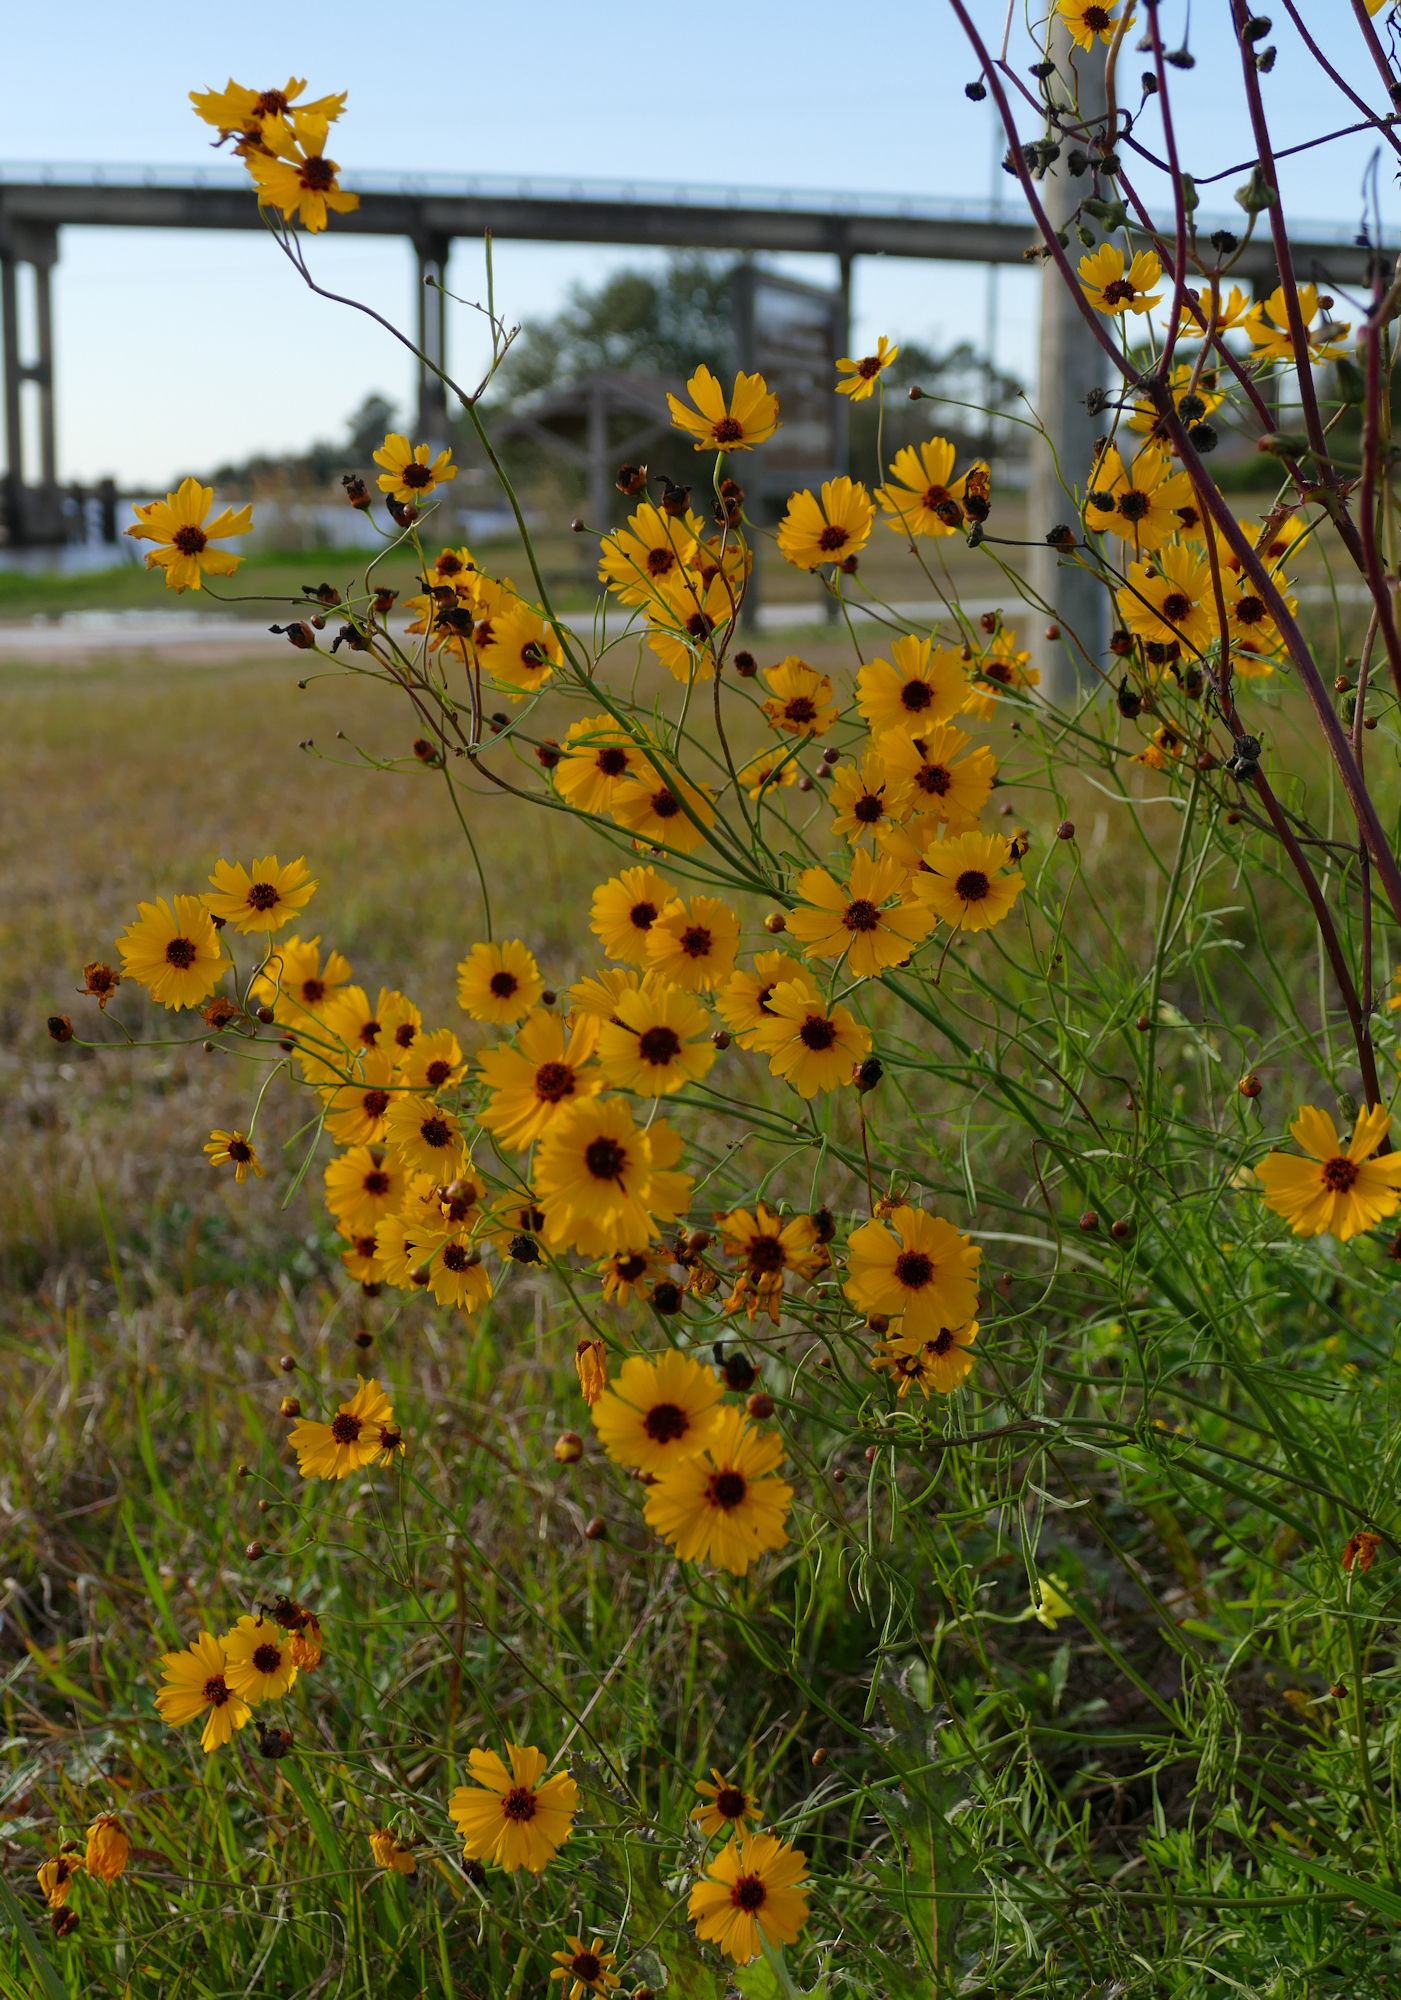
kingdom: Plantae
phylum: Tracheophyta
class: Magnoliopsida
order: Asterales
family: Asteraceae
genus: Coreopsis
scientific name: Coreopsis tinctoria
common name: Garden tickseed
